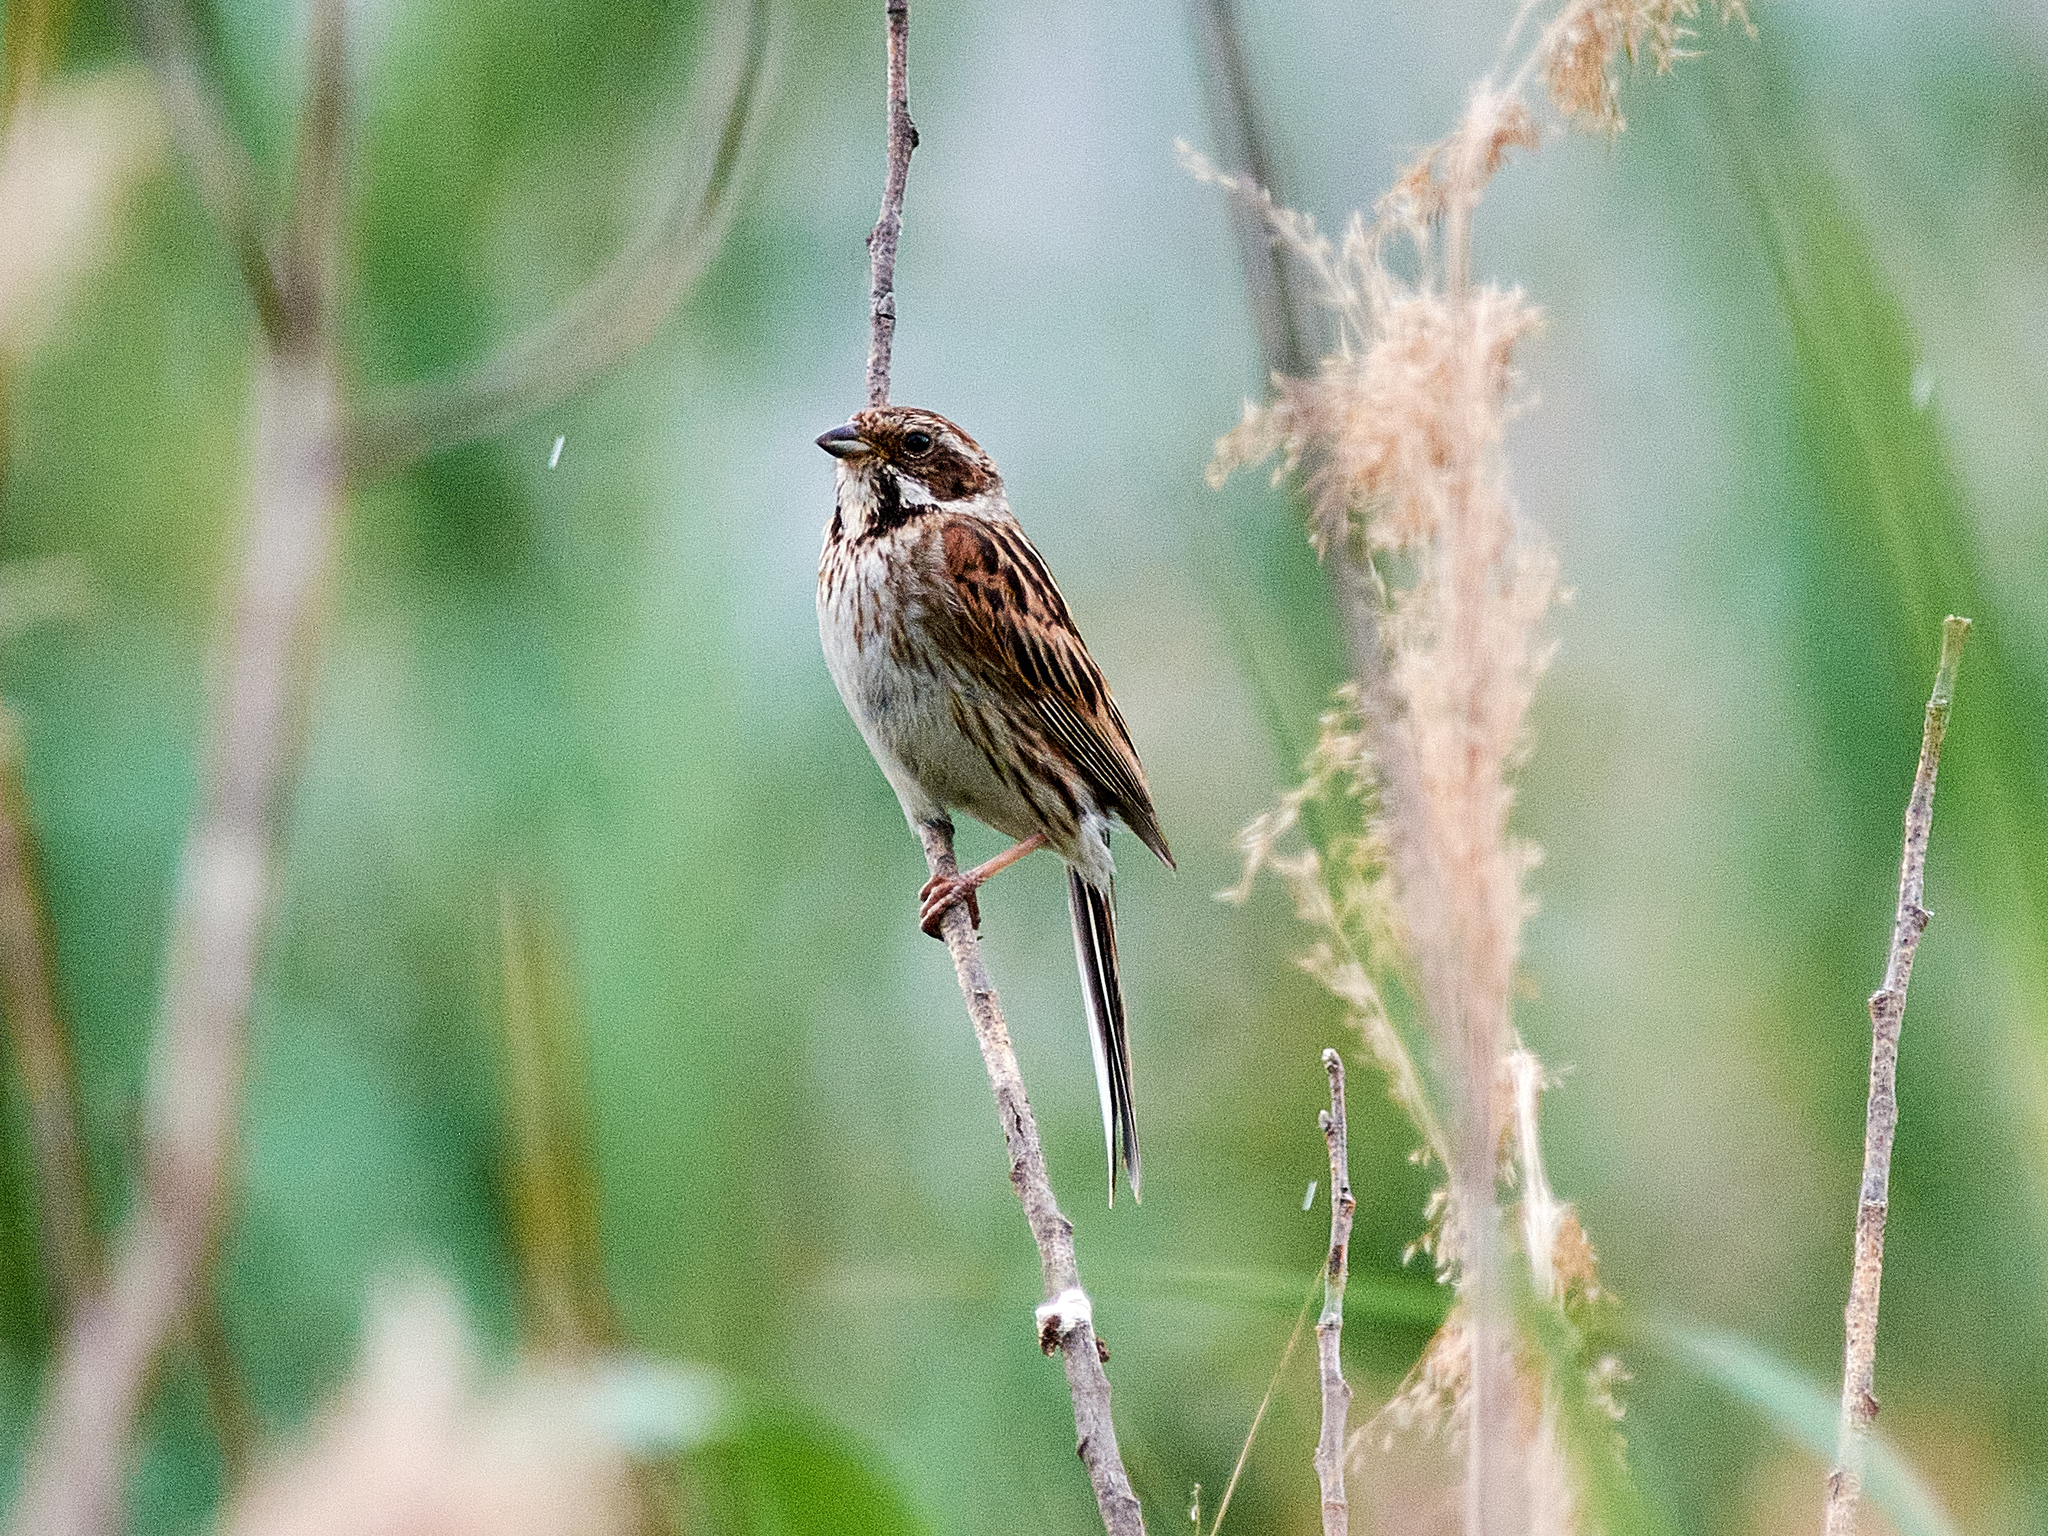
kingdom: Animalia
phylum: Chordata
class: Aves
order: Passeriformes
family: Emberizidae
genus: Emberiza
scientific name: Emberiza schoeniclus
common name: Reed bunting
